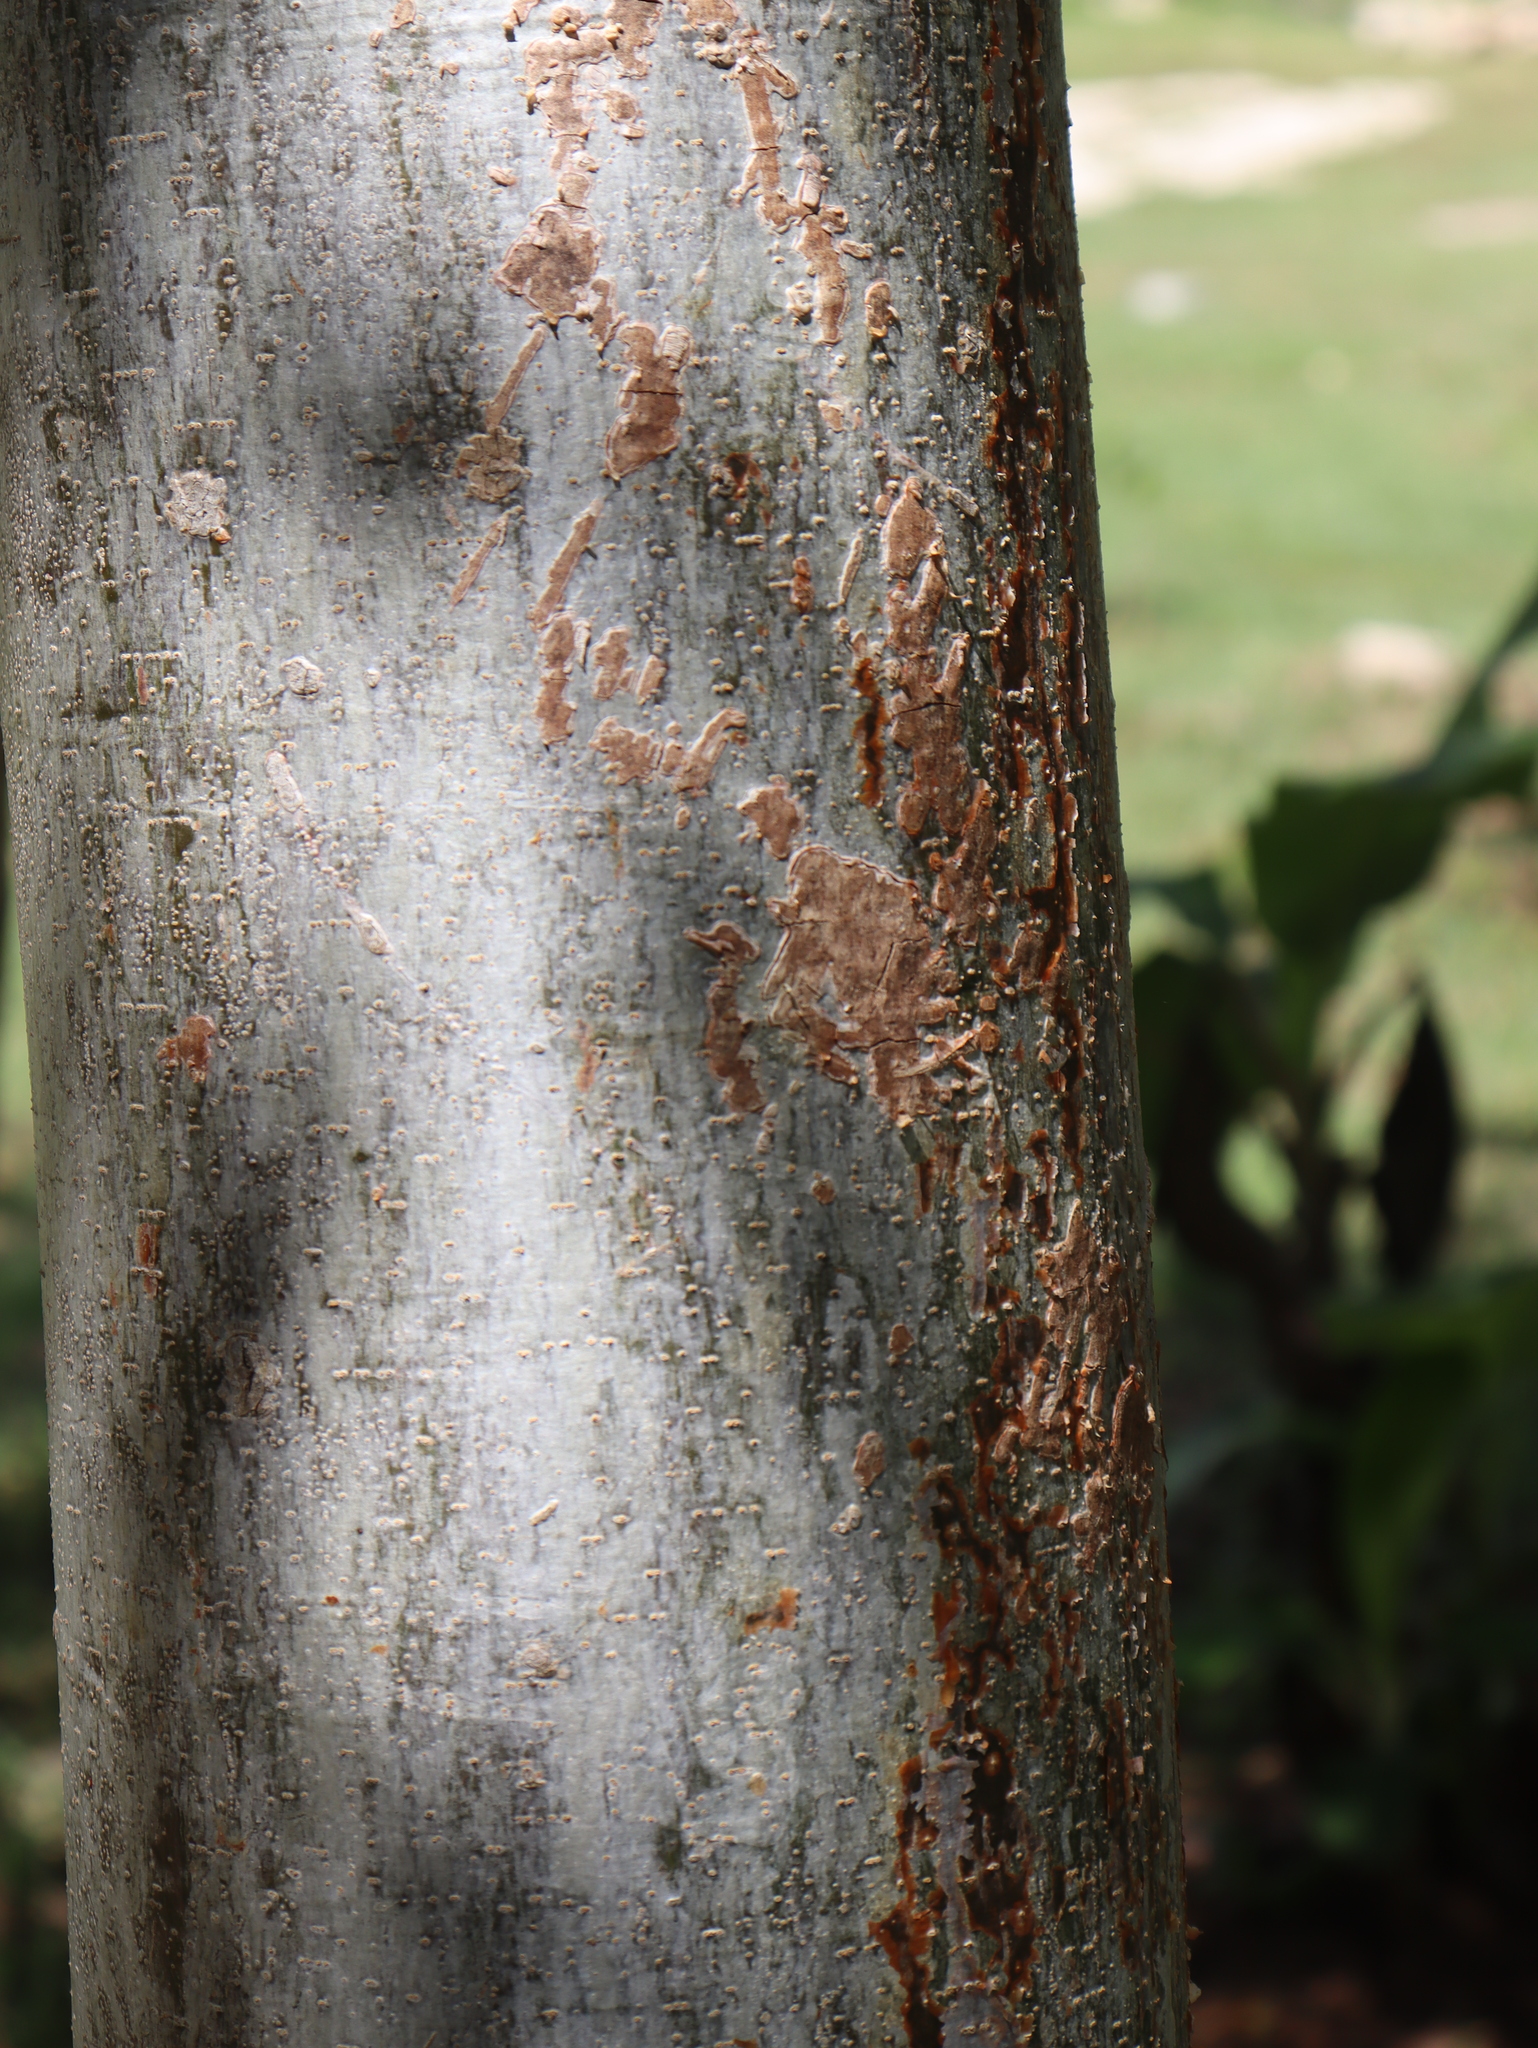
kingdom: Plantae
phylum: Tracheophyta
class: Magnoliopsida
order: Sapindales
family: Burseraceae
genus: Bursera
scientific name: Bursera simaruba
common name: Turpentine tree
